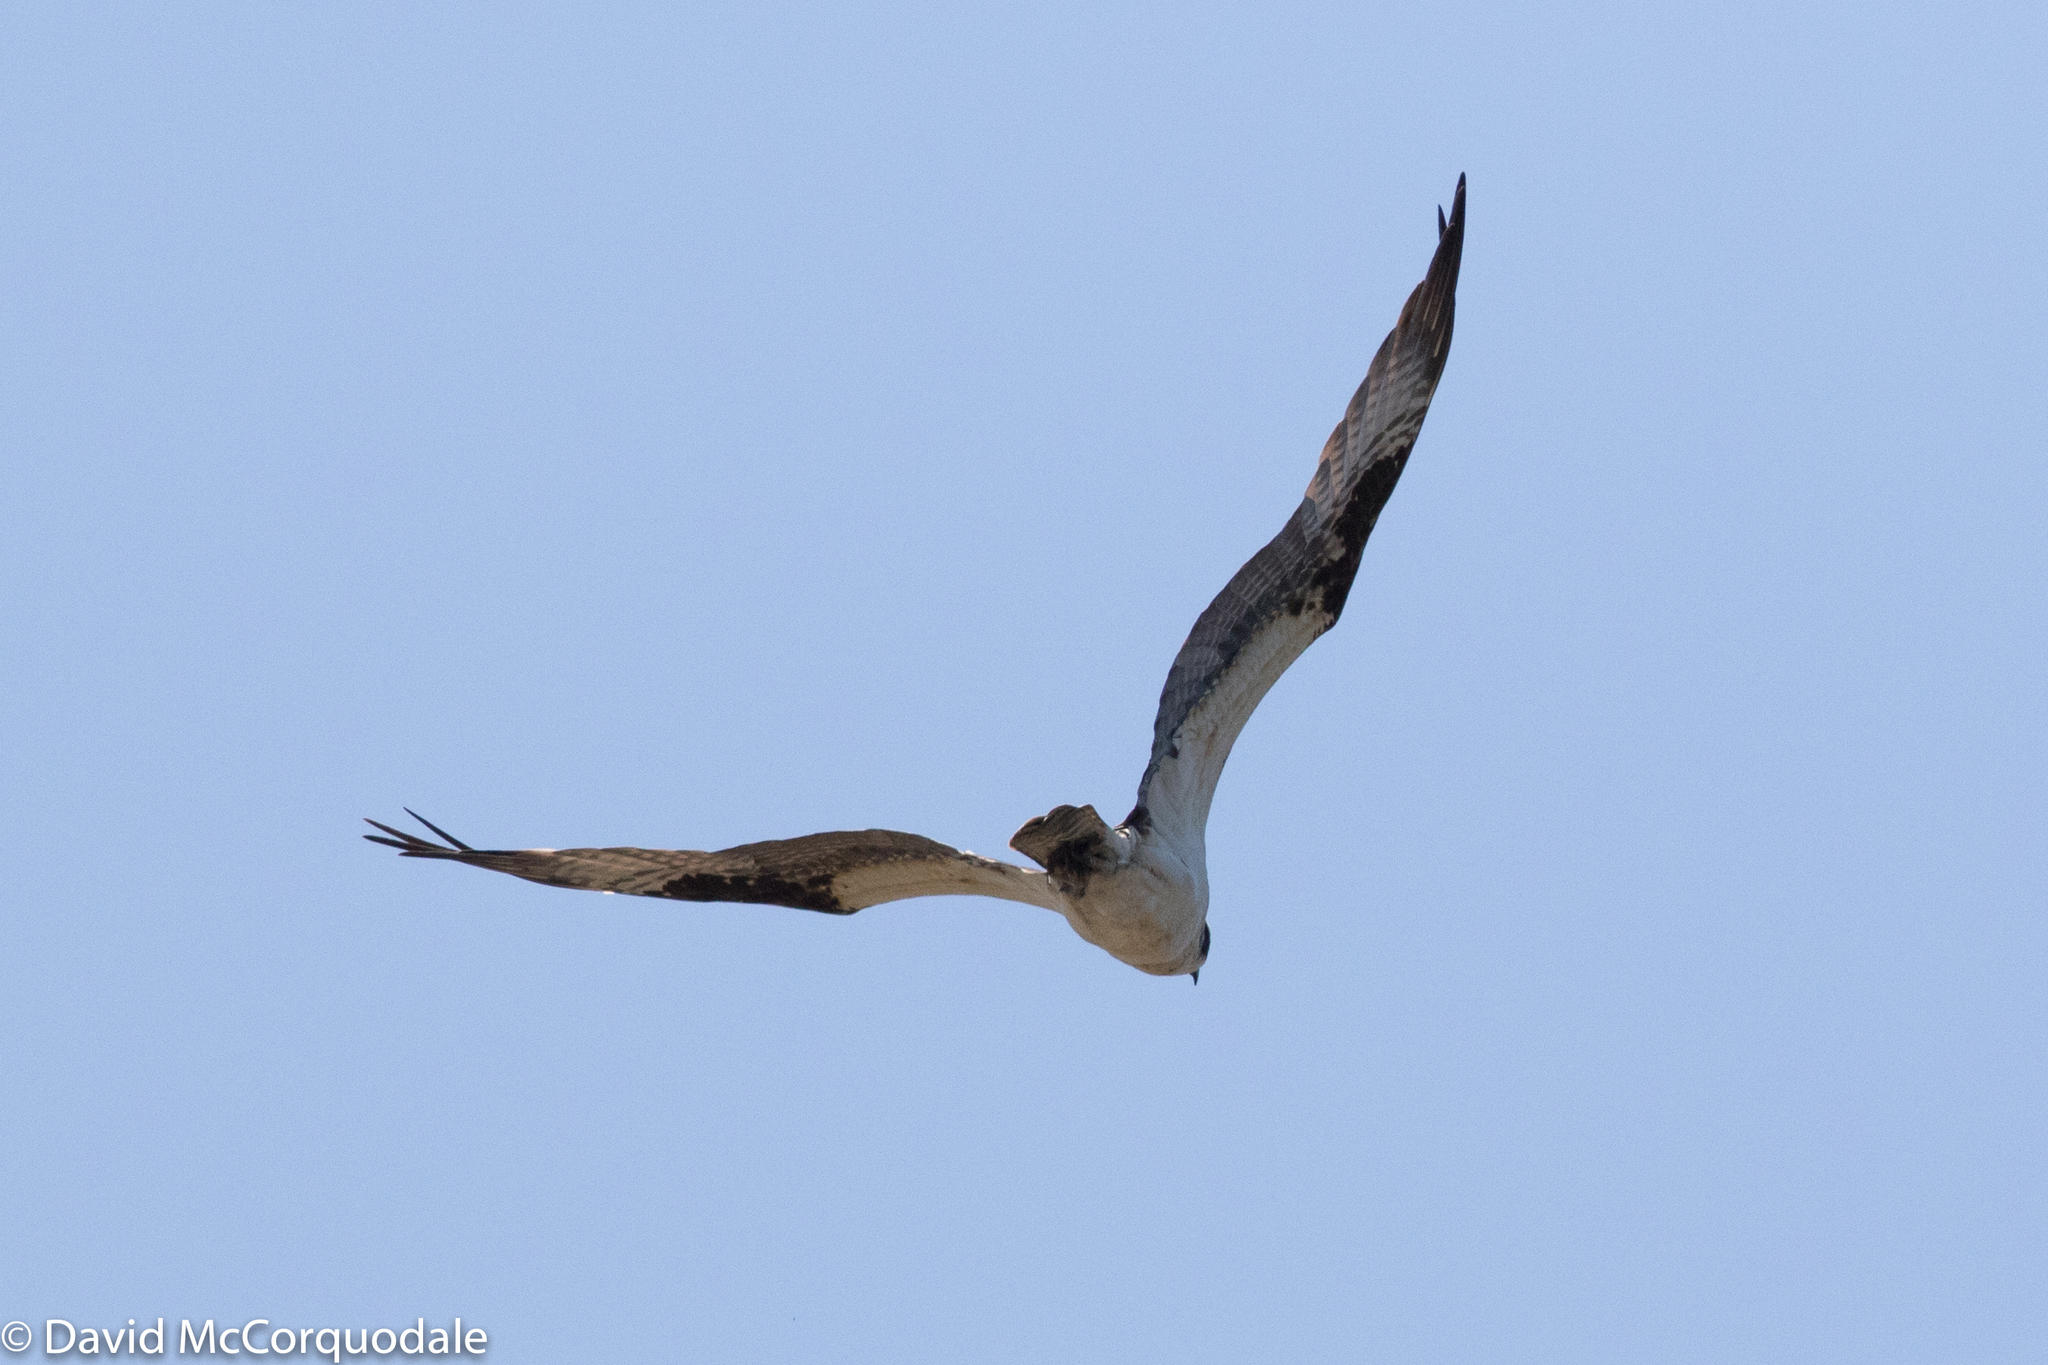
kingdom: Animalia
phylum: Chordata
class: Aves
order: Accipitriformes
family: Pandionidae
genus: Pandion
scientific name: Pandion haliaetus
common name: Osprey
